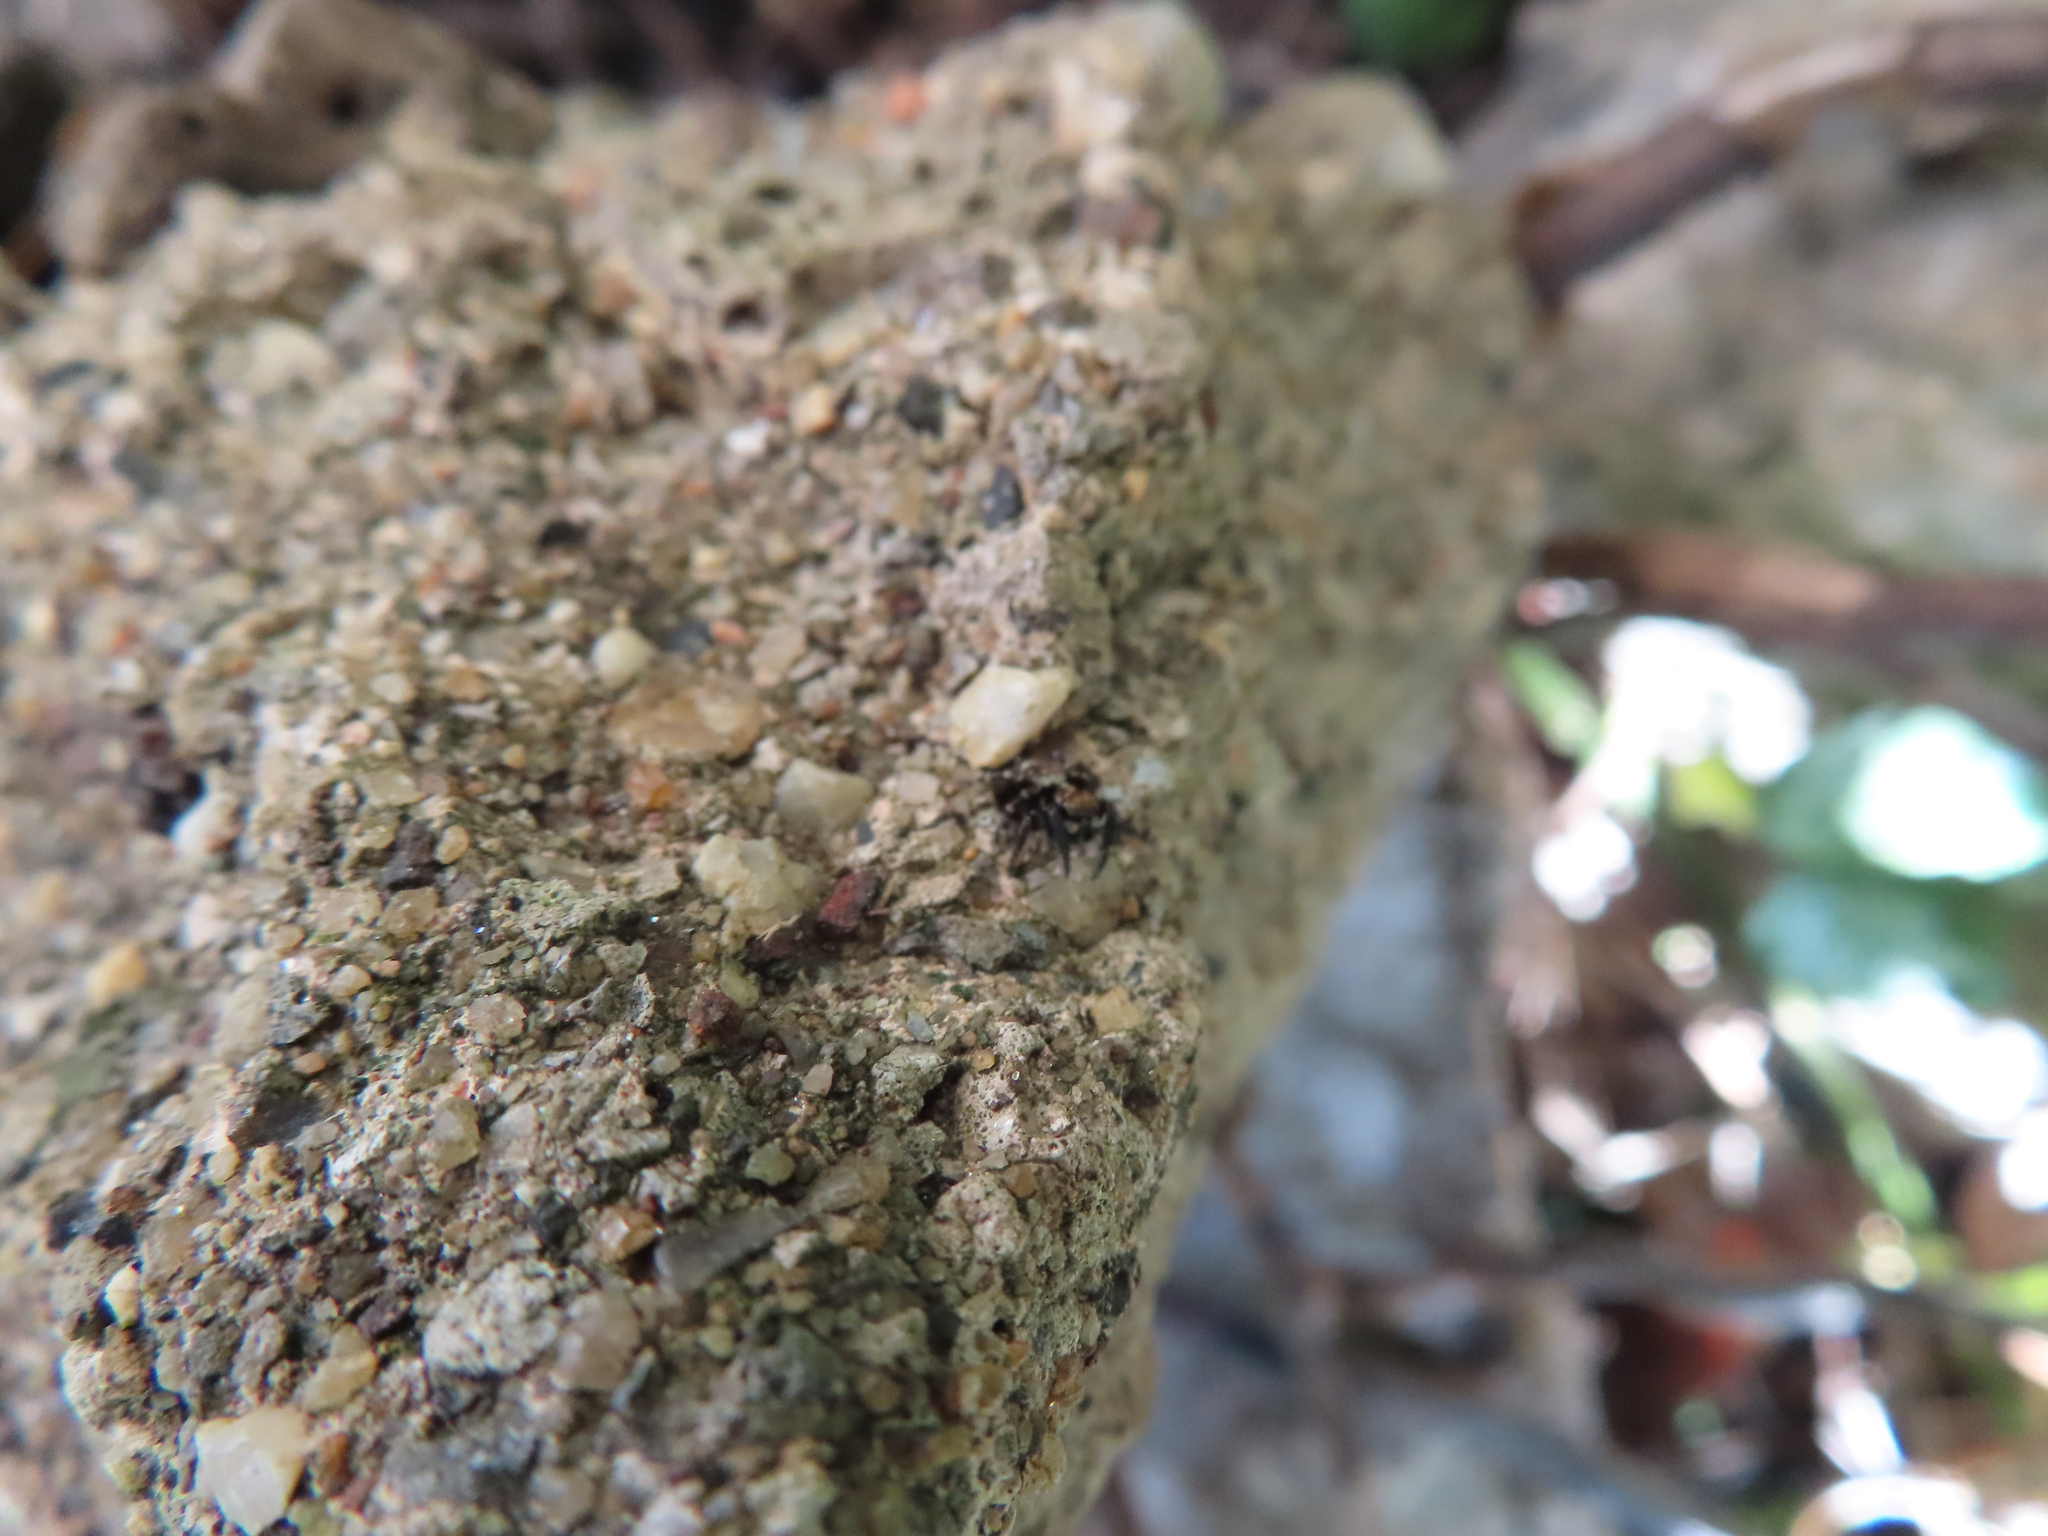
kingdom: Animalia
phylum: Arthropoda
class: Arachnida
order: Araneae
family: Salticidae
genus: Pseudeuophrys
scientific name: Pseudeuophrys erratica
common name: Jumping spider
